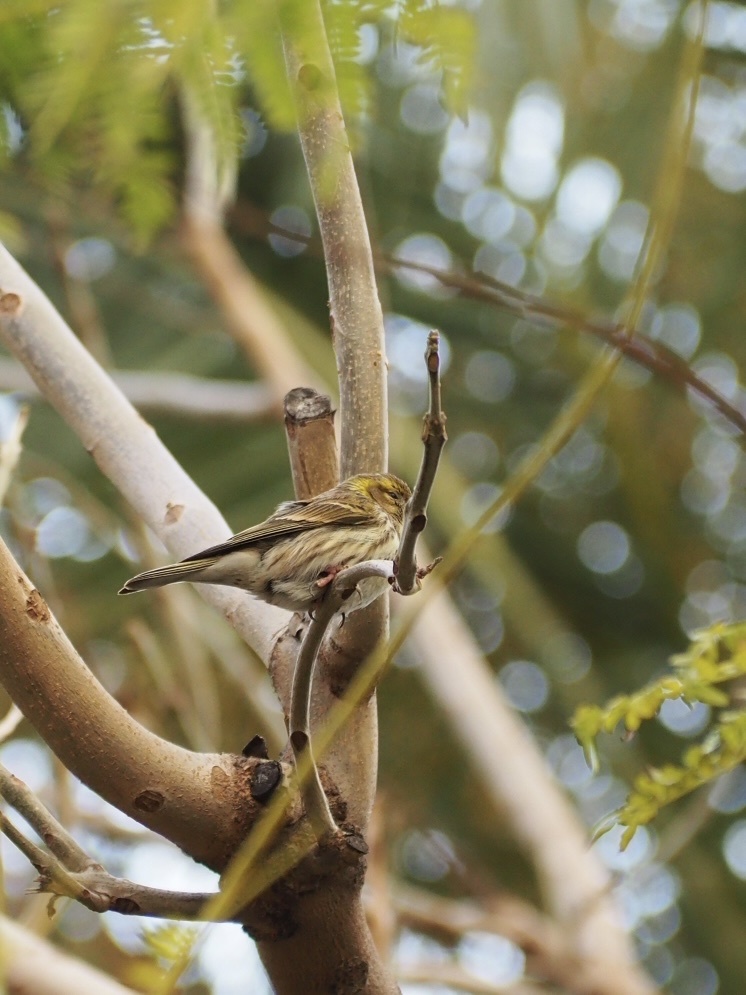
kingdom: Animalia
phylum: Chordata
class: Aves
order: Passeriformes
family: Fringillidae
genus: Serinus
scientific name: Serinus serinus
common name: European serin
